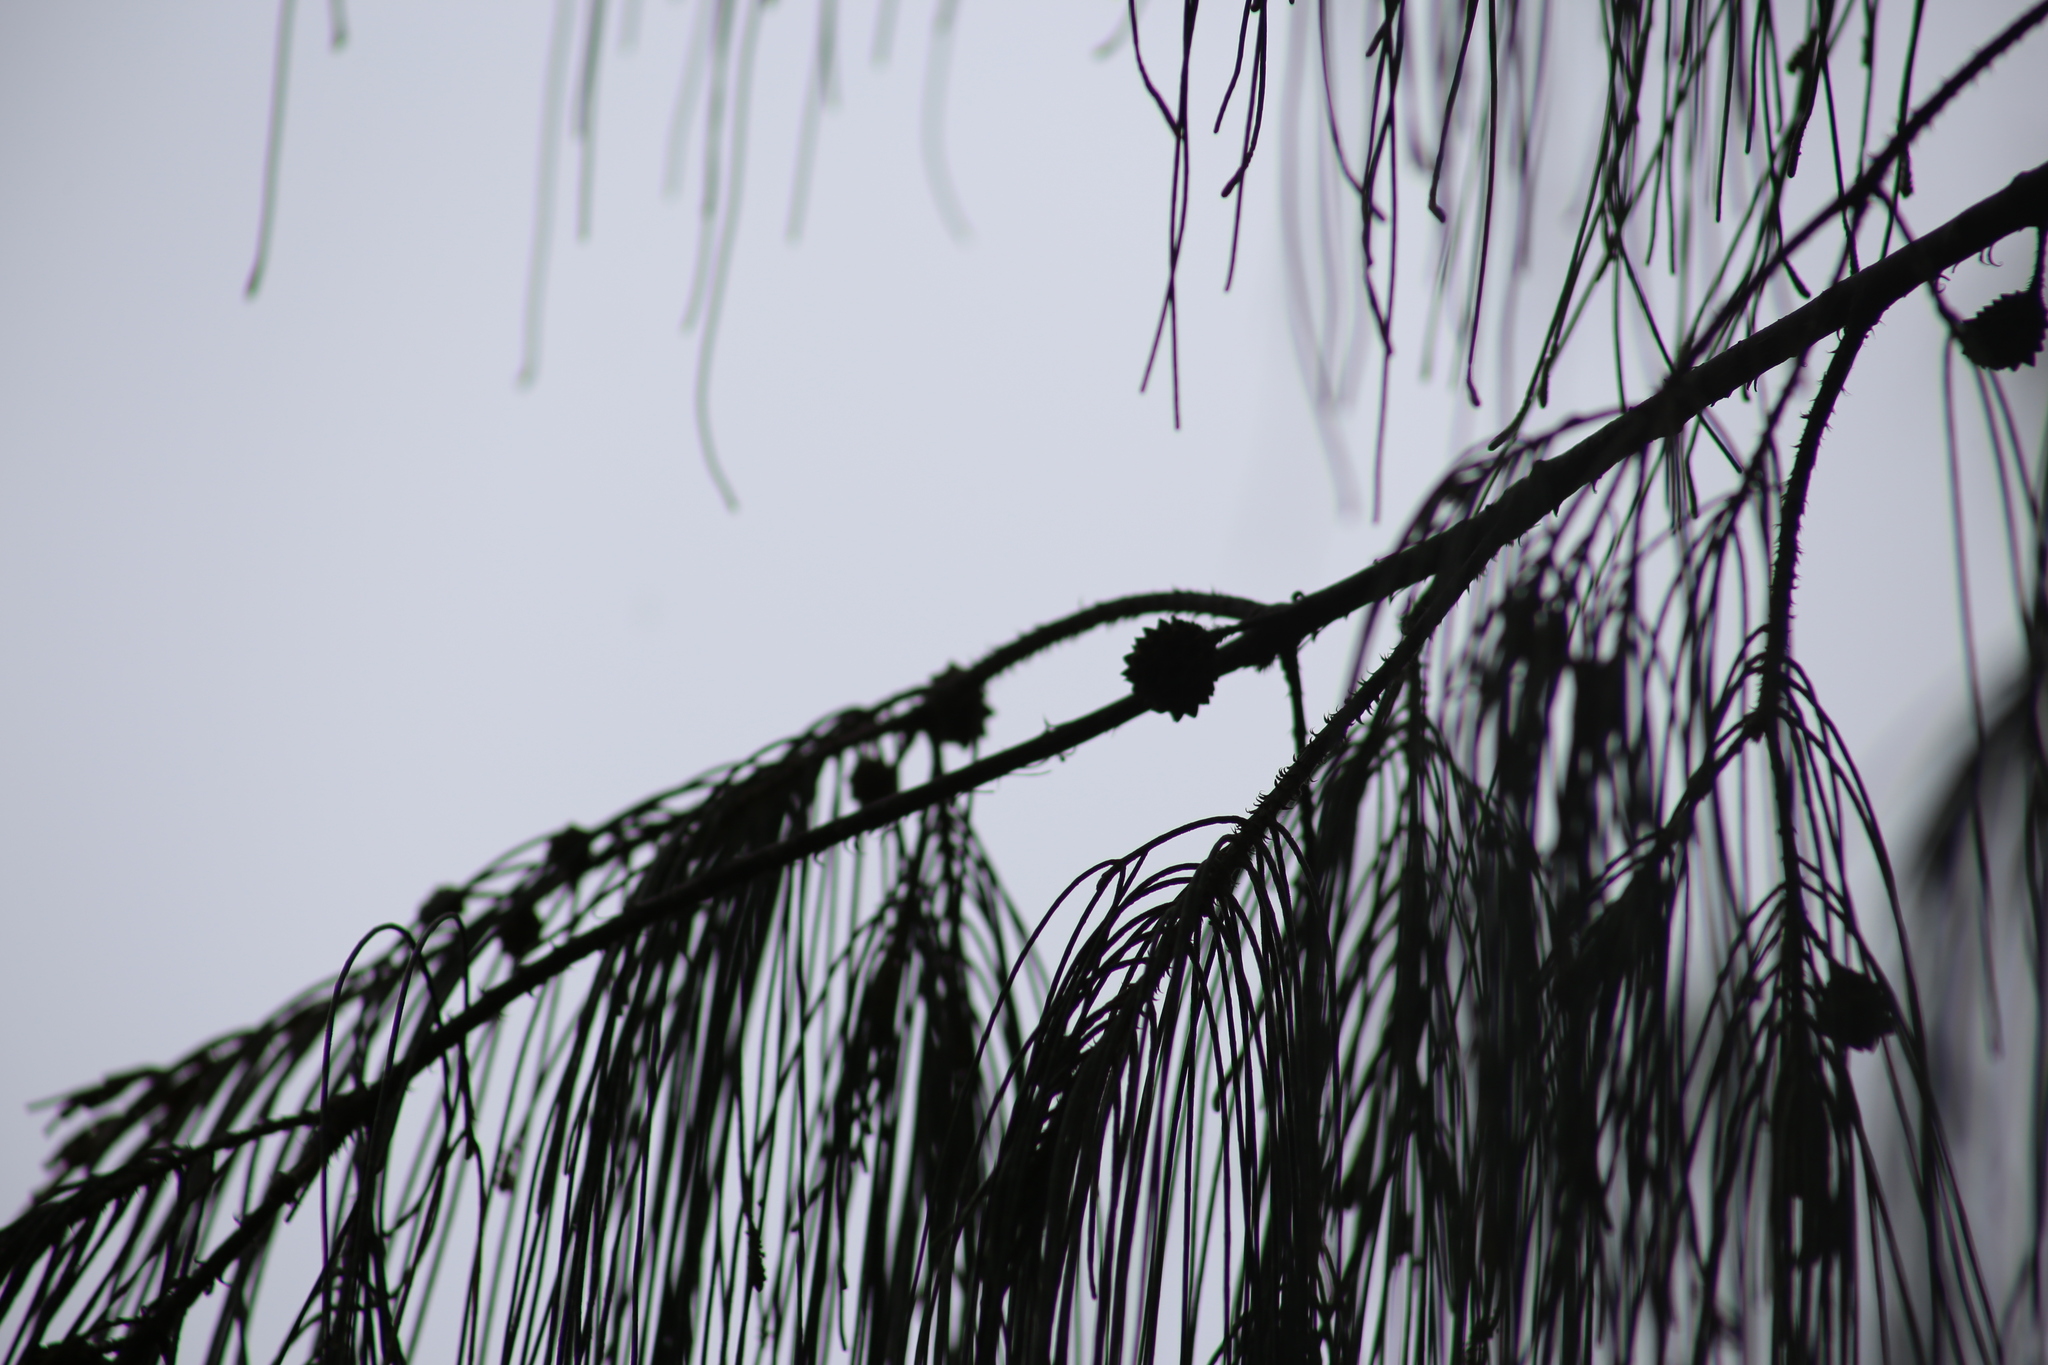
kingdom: Plantae
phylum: Tracheophyta
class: Magnoliopsida
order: Fagales
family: Casuarinaceae
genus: Casuarina
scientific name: Casuarina equisetifolia
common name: Beach sheoak
